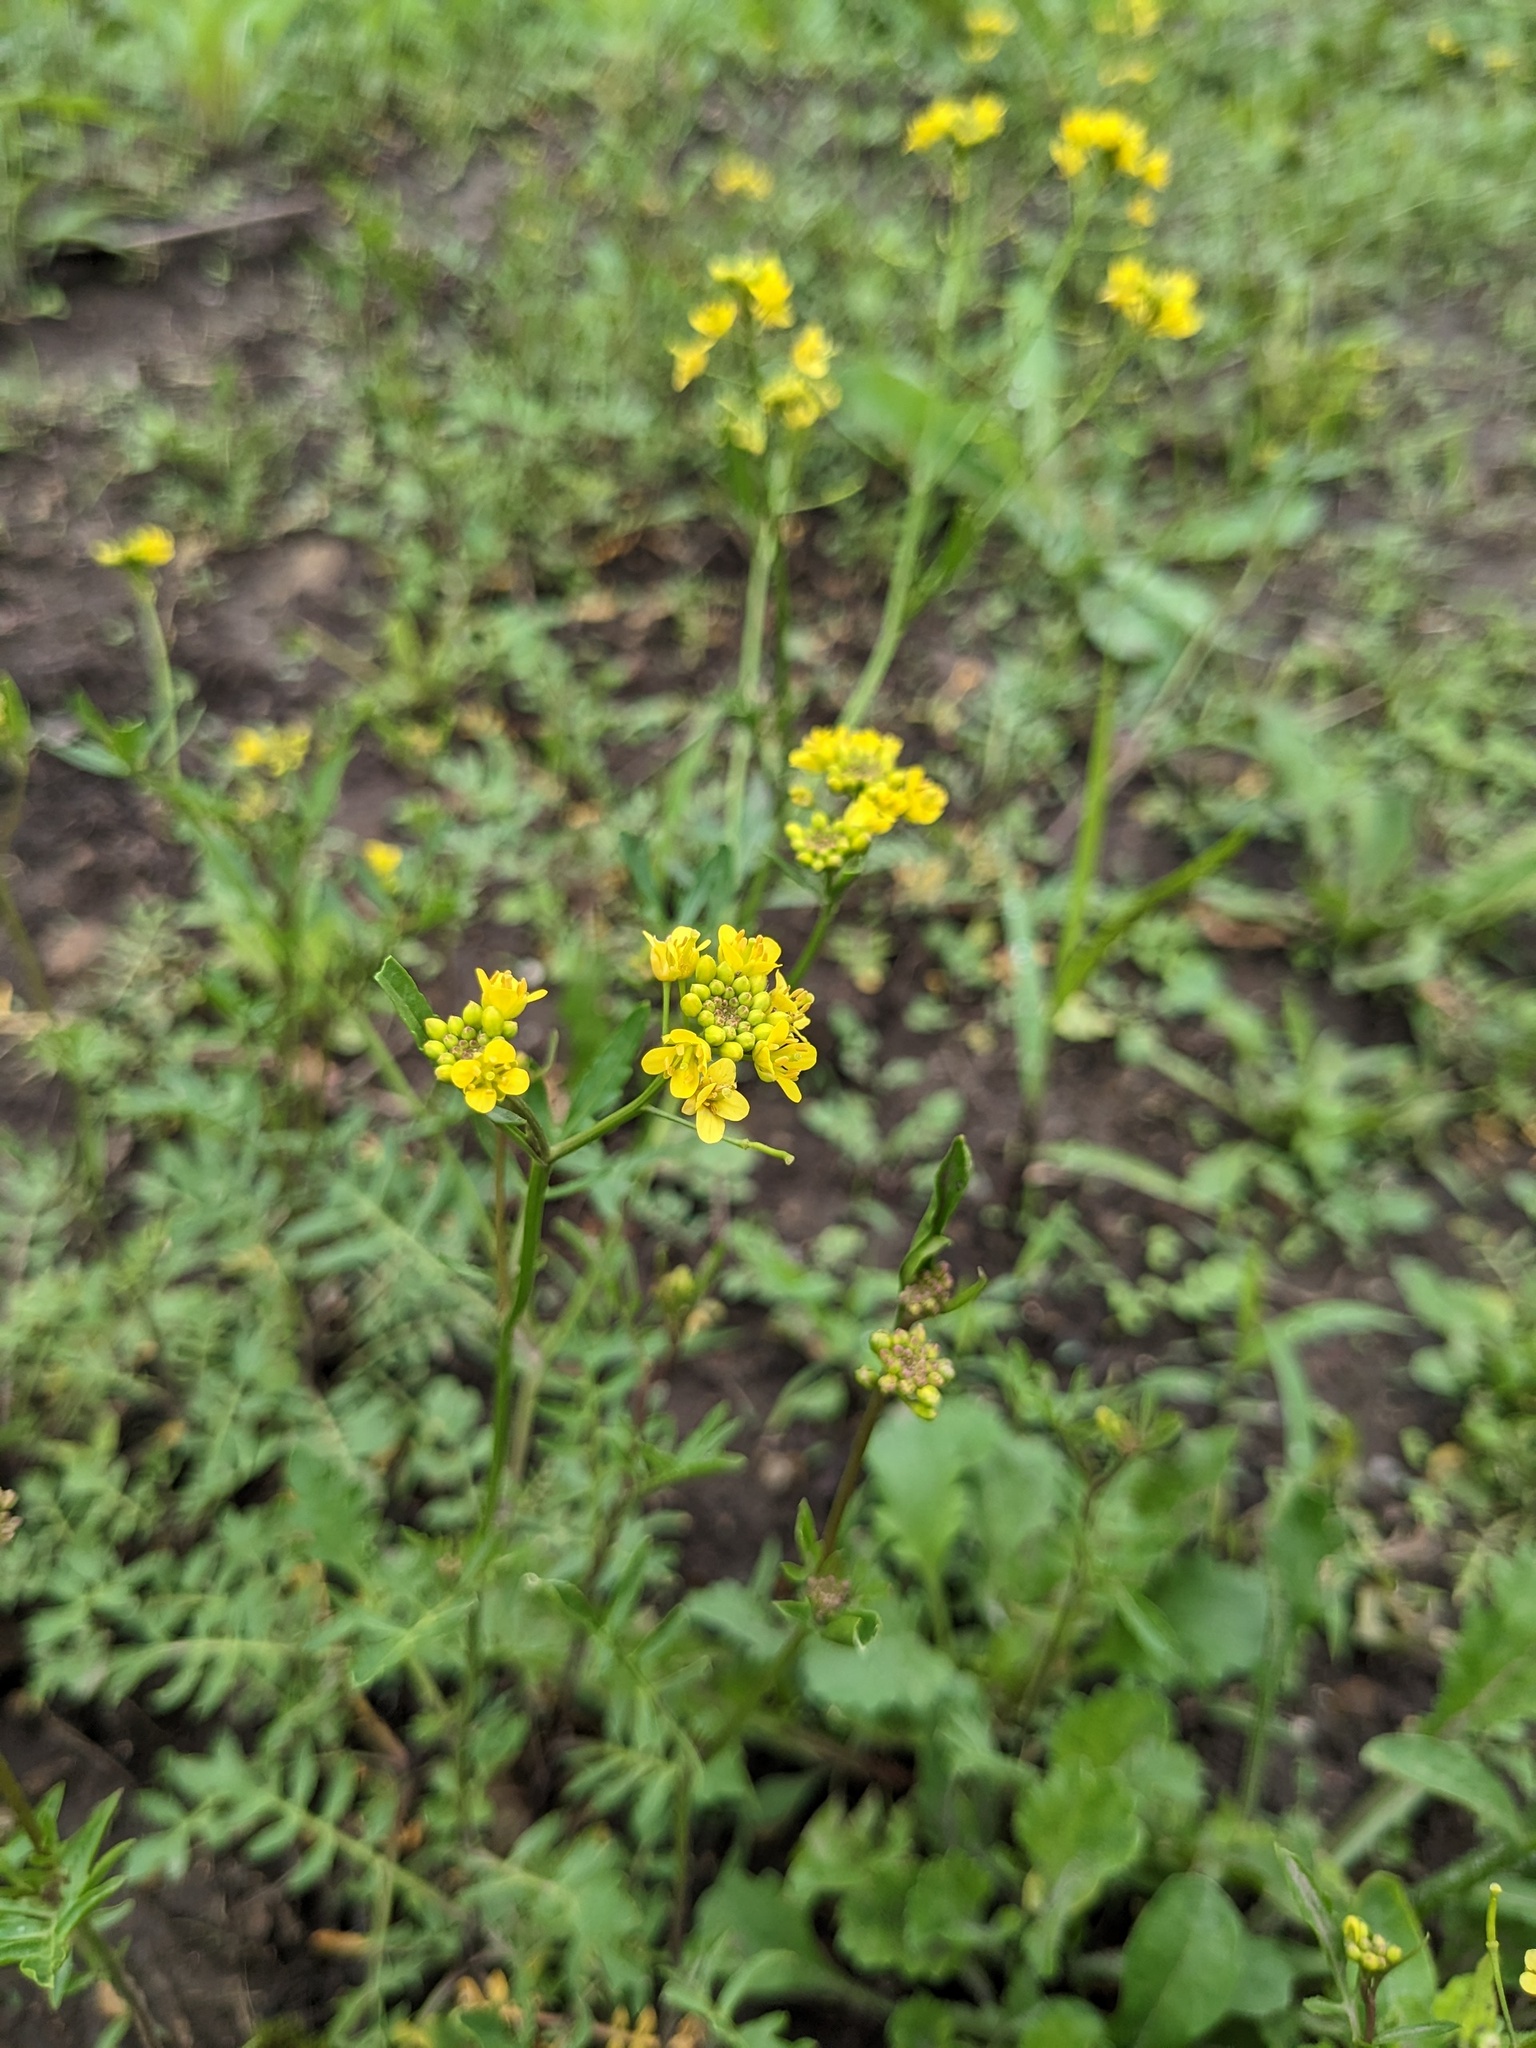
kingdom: Plantae
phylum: Tracheophyta
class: Magnoliopsida
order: Brassicales
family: Brassicaceae
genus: Rorippa
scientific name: Rorippa sylvestris
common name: Creeping yellowcress
